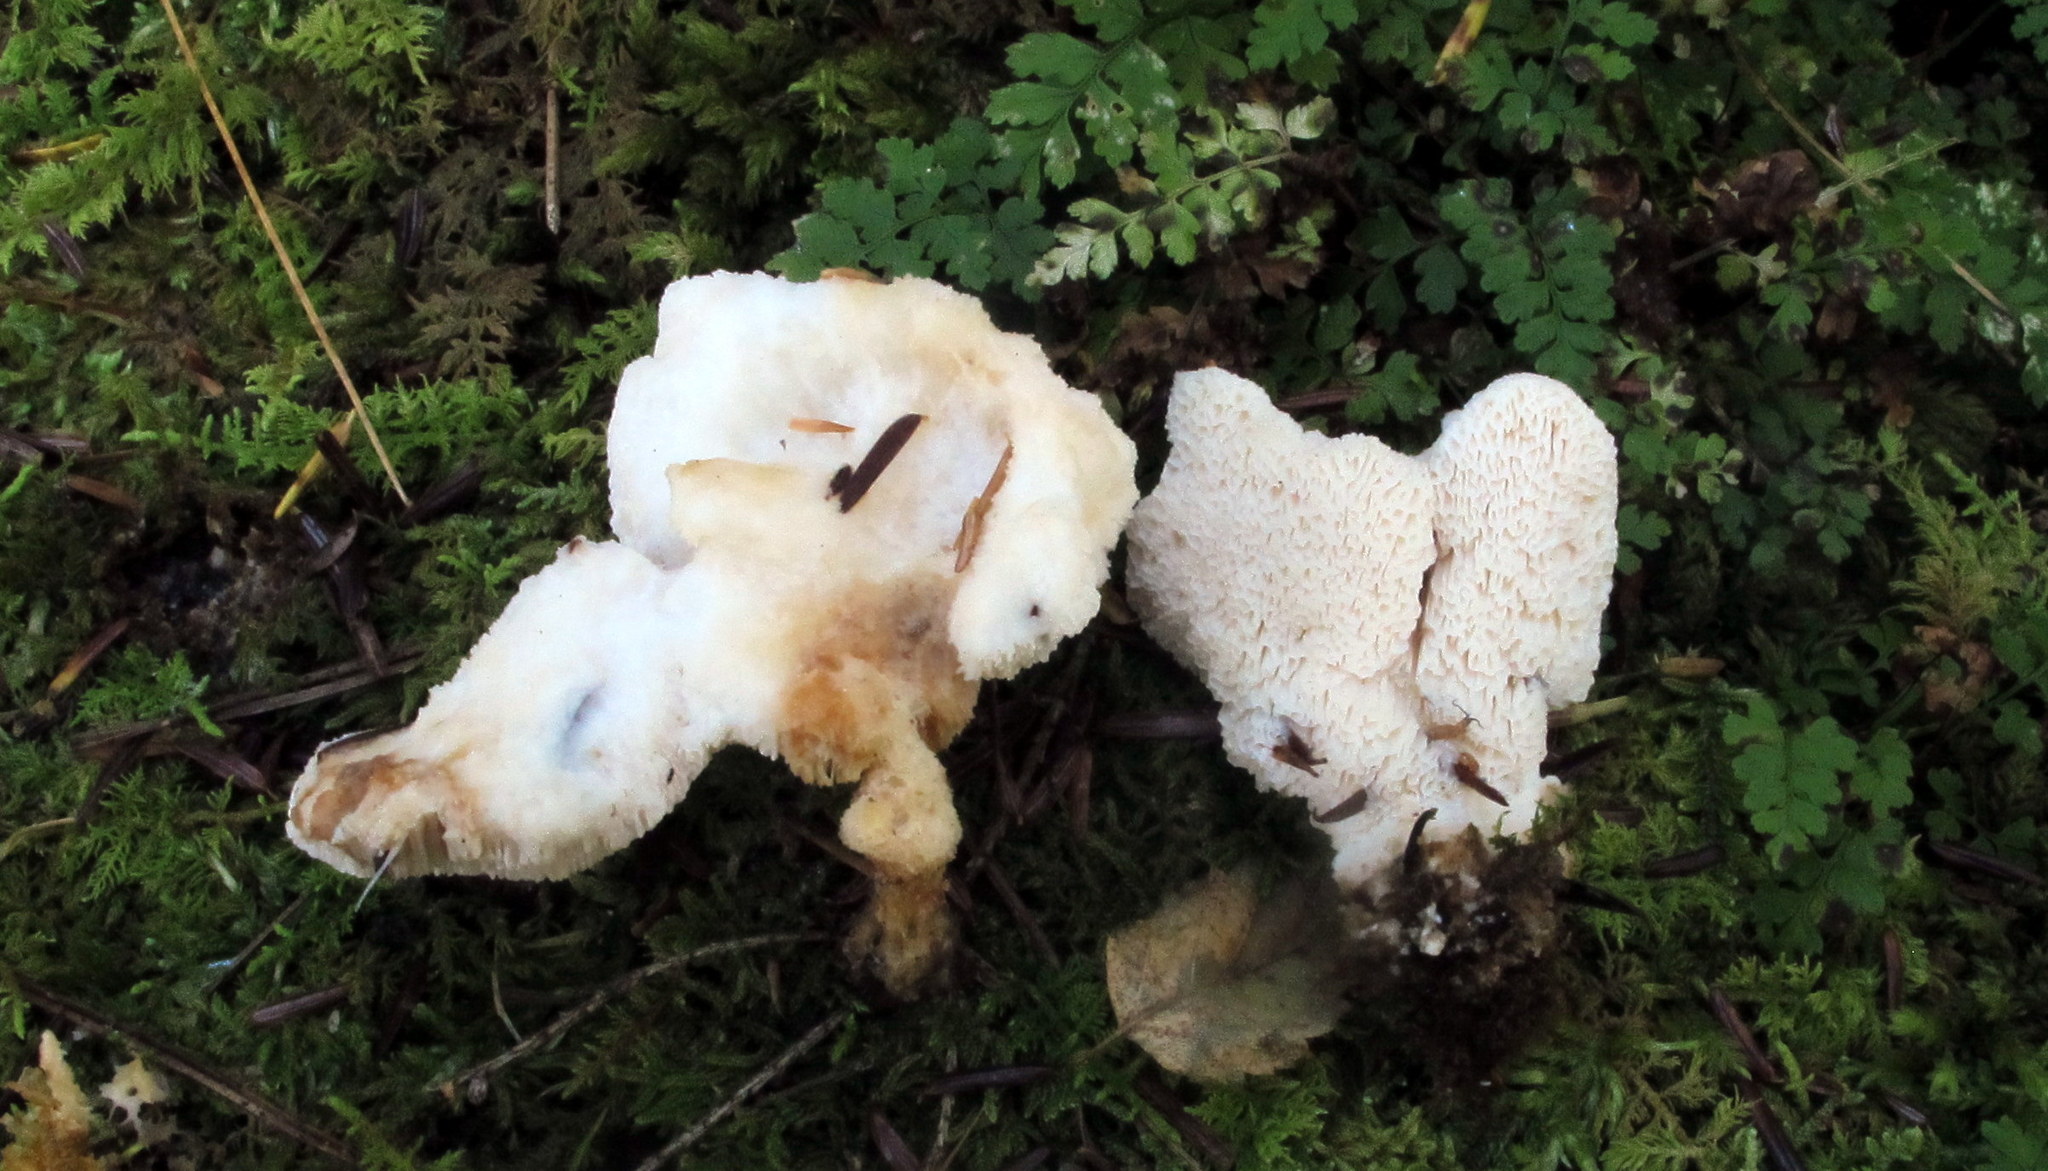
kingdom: Fungi
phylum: Basidiomycota
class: Agaricomycetes
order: Polyporales
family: Podoscyphaceae
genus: Abortiporus
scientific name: Abortiporus biennis
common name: Blushing rosette
